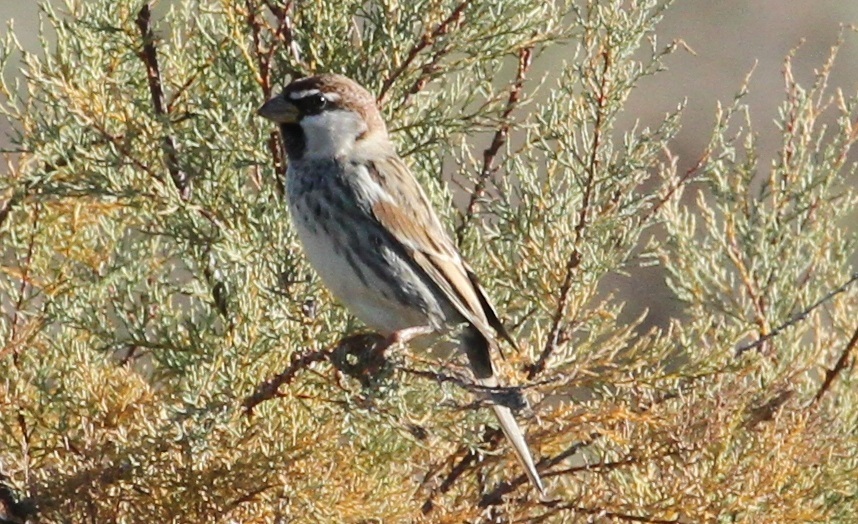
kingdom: Animalia
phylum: Chordata
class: Aves
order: Passeriformes
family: Passeridae
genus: Passer
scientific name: Passer hispaniolensis
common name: Spanish sparrow
